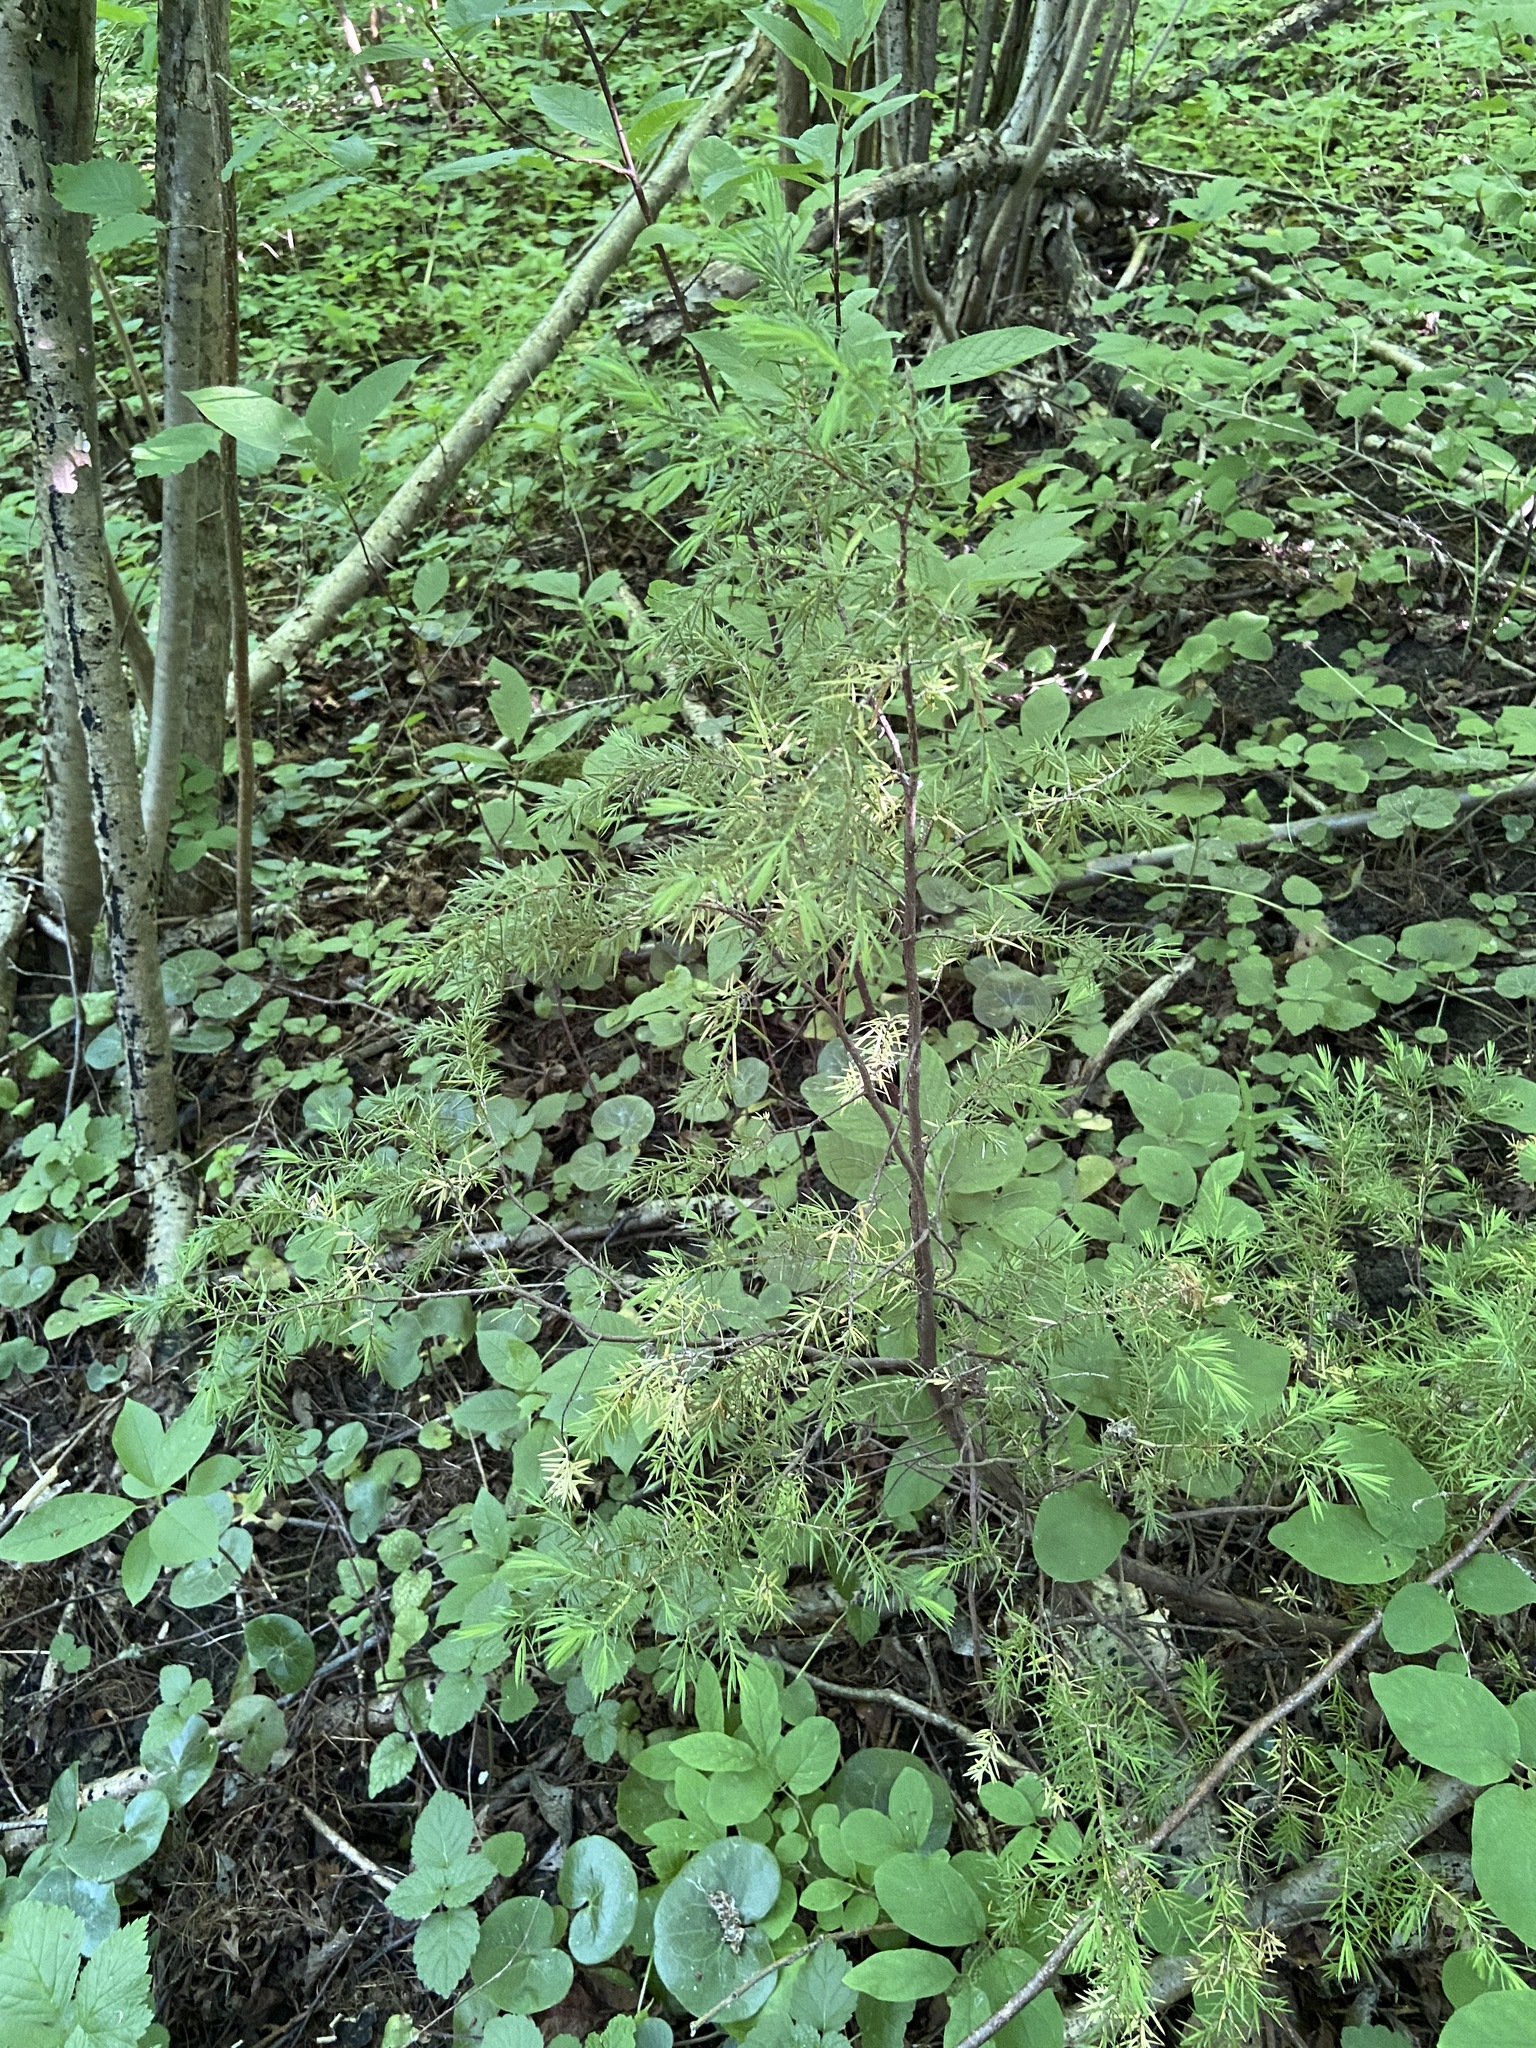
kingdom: Plantae
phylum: Tracheophyta
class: Pinopsida
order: Pinales
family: Cupressaceae
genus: Juniperus
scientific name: Juniperus communis
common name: Common juniper
